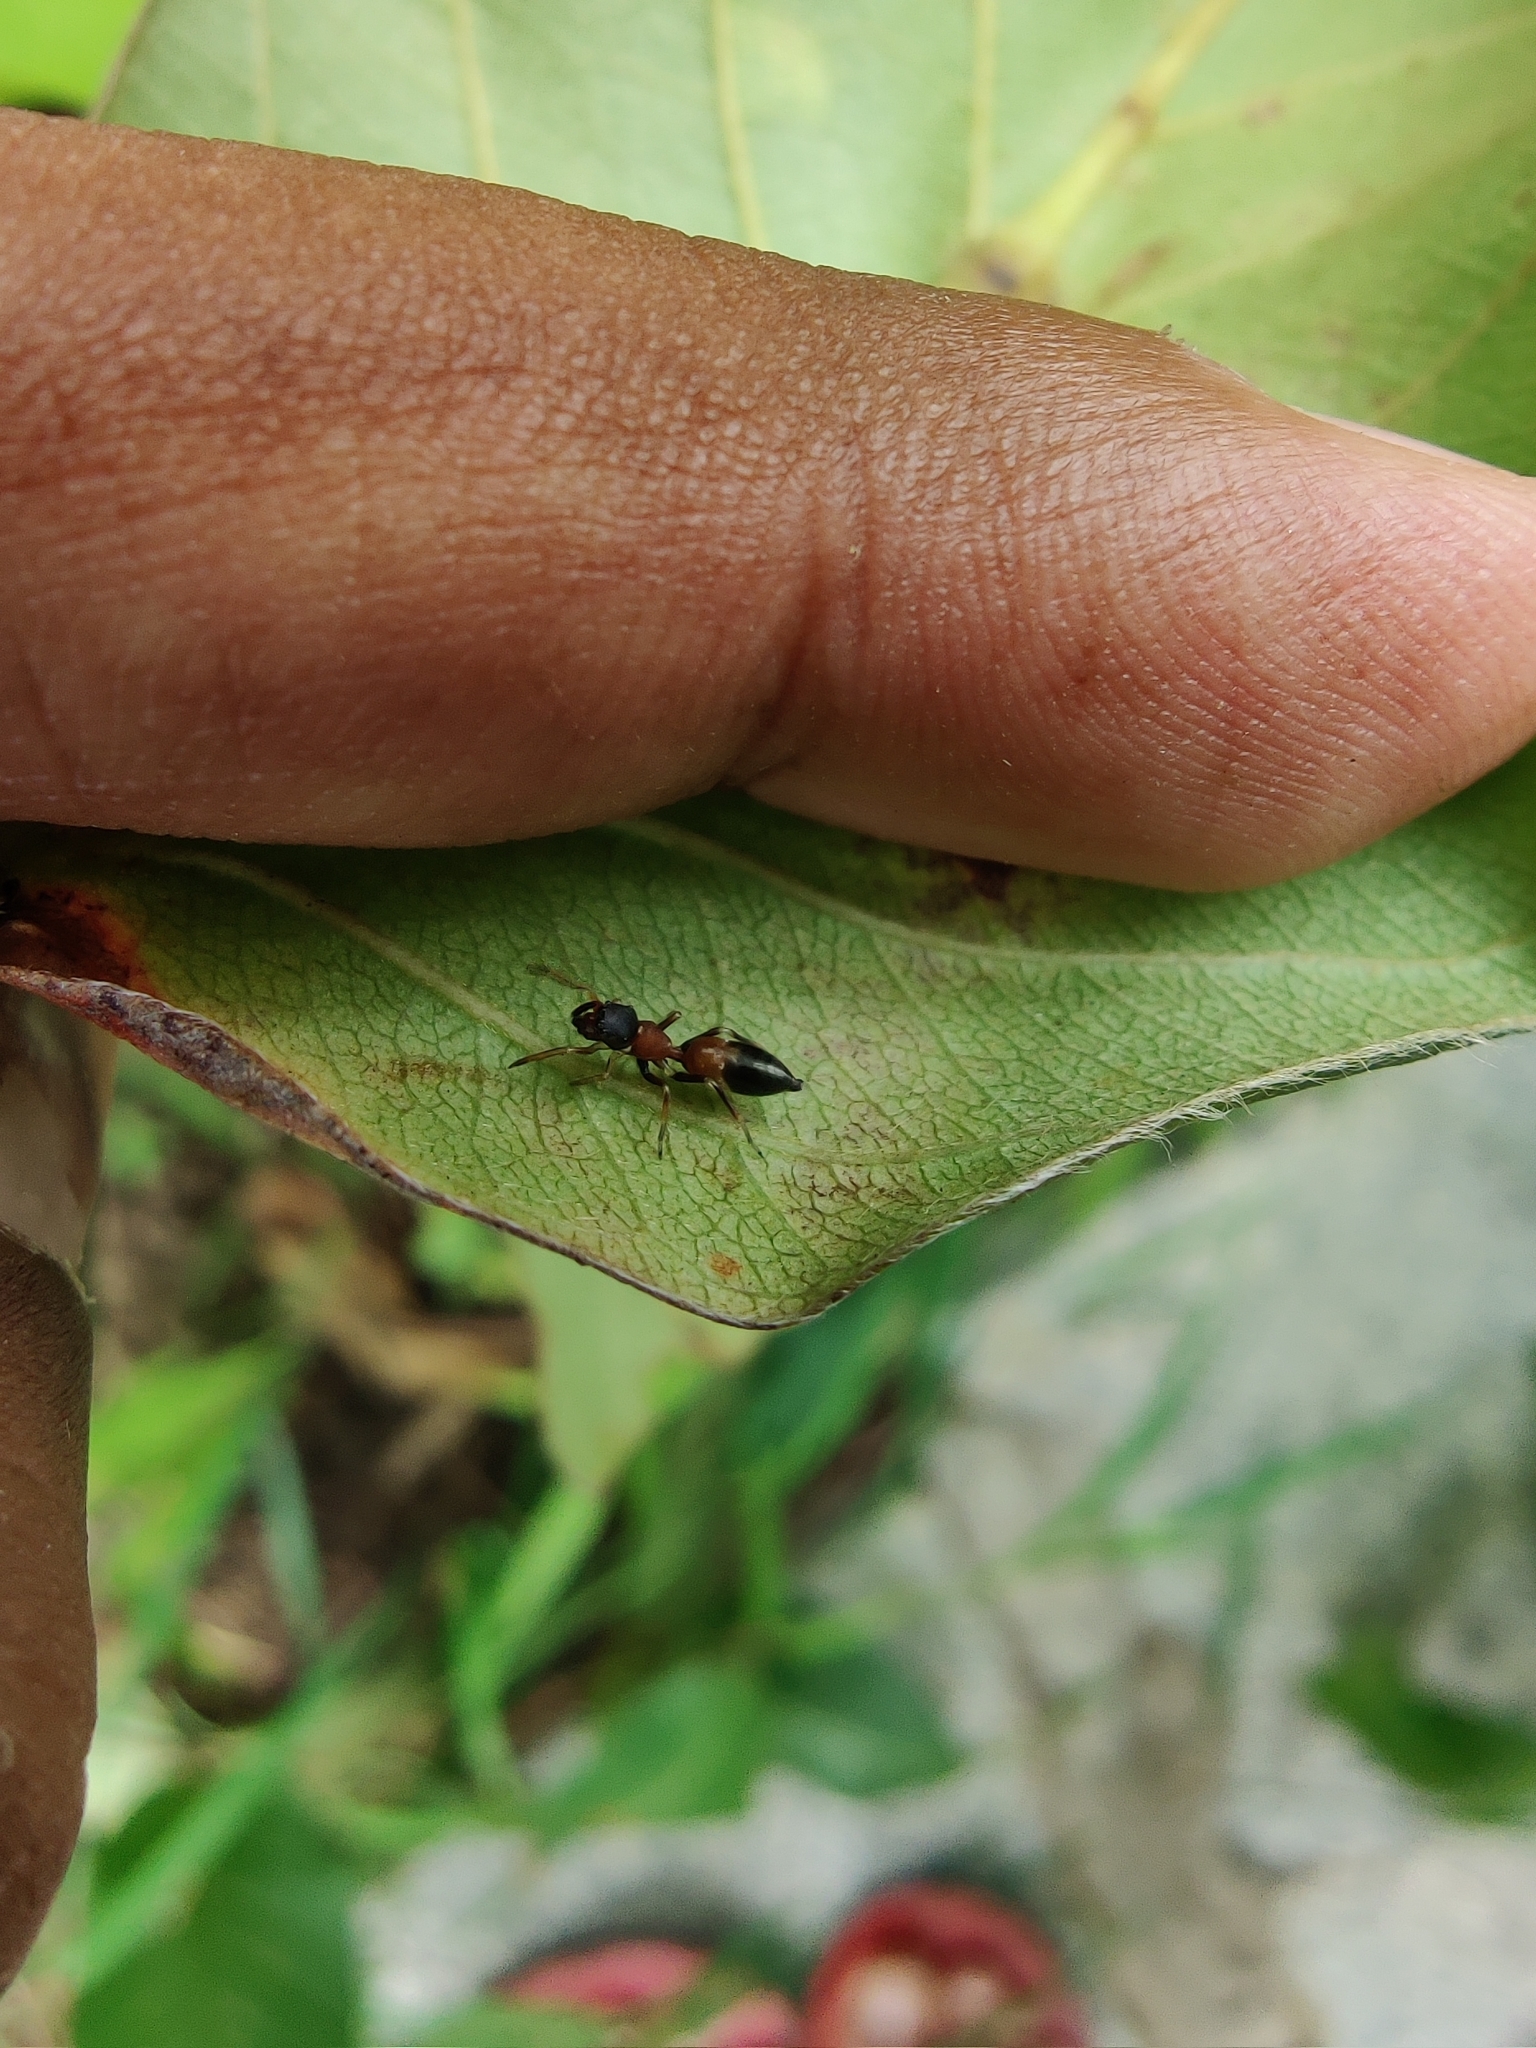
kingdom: Animalia
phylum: Arthropoda
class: Arachnida
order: Araneae
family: Salticidae
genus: Myrmarachne
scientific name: Myrmarachne melanocephala
